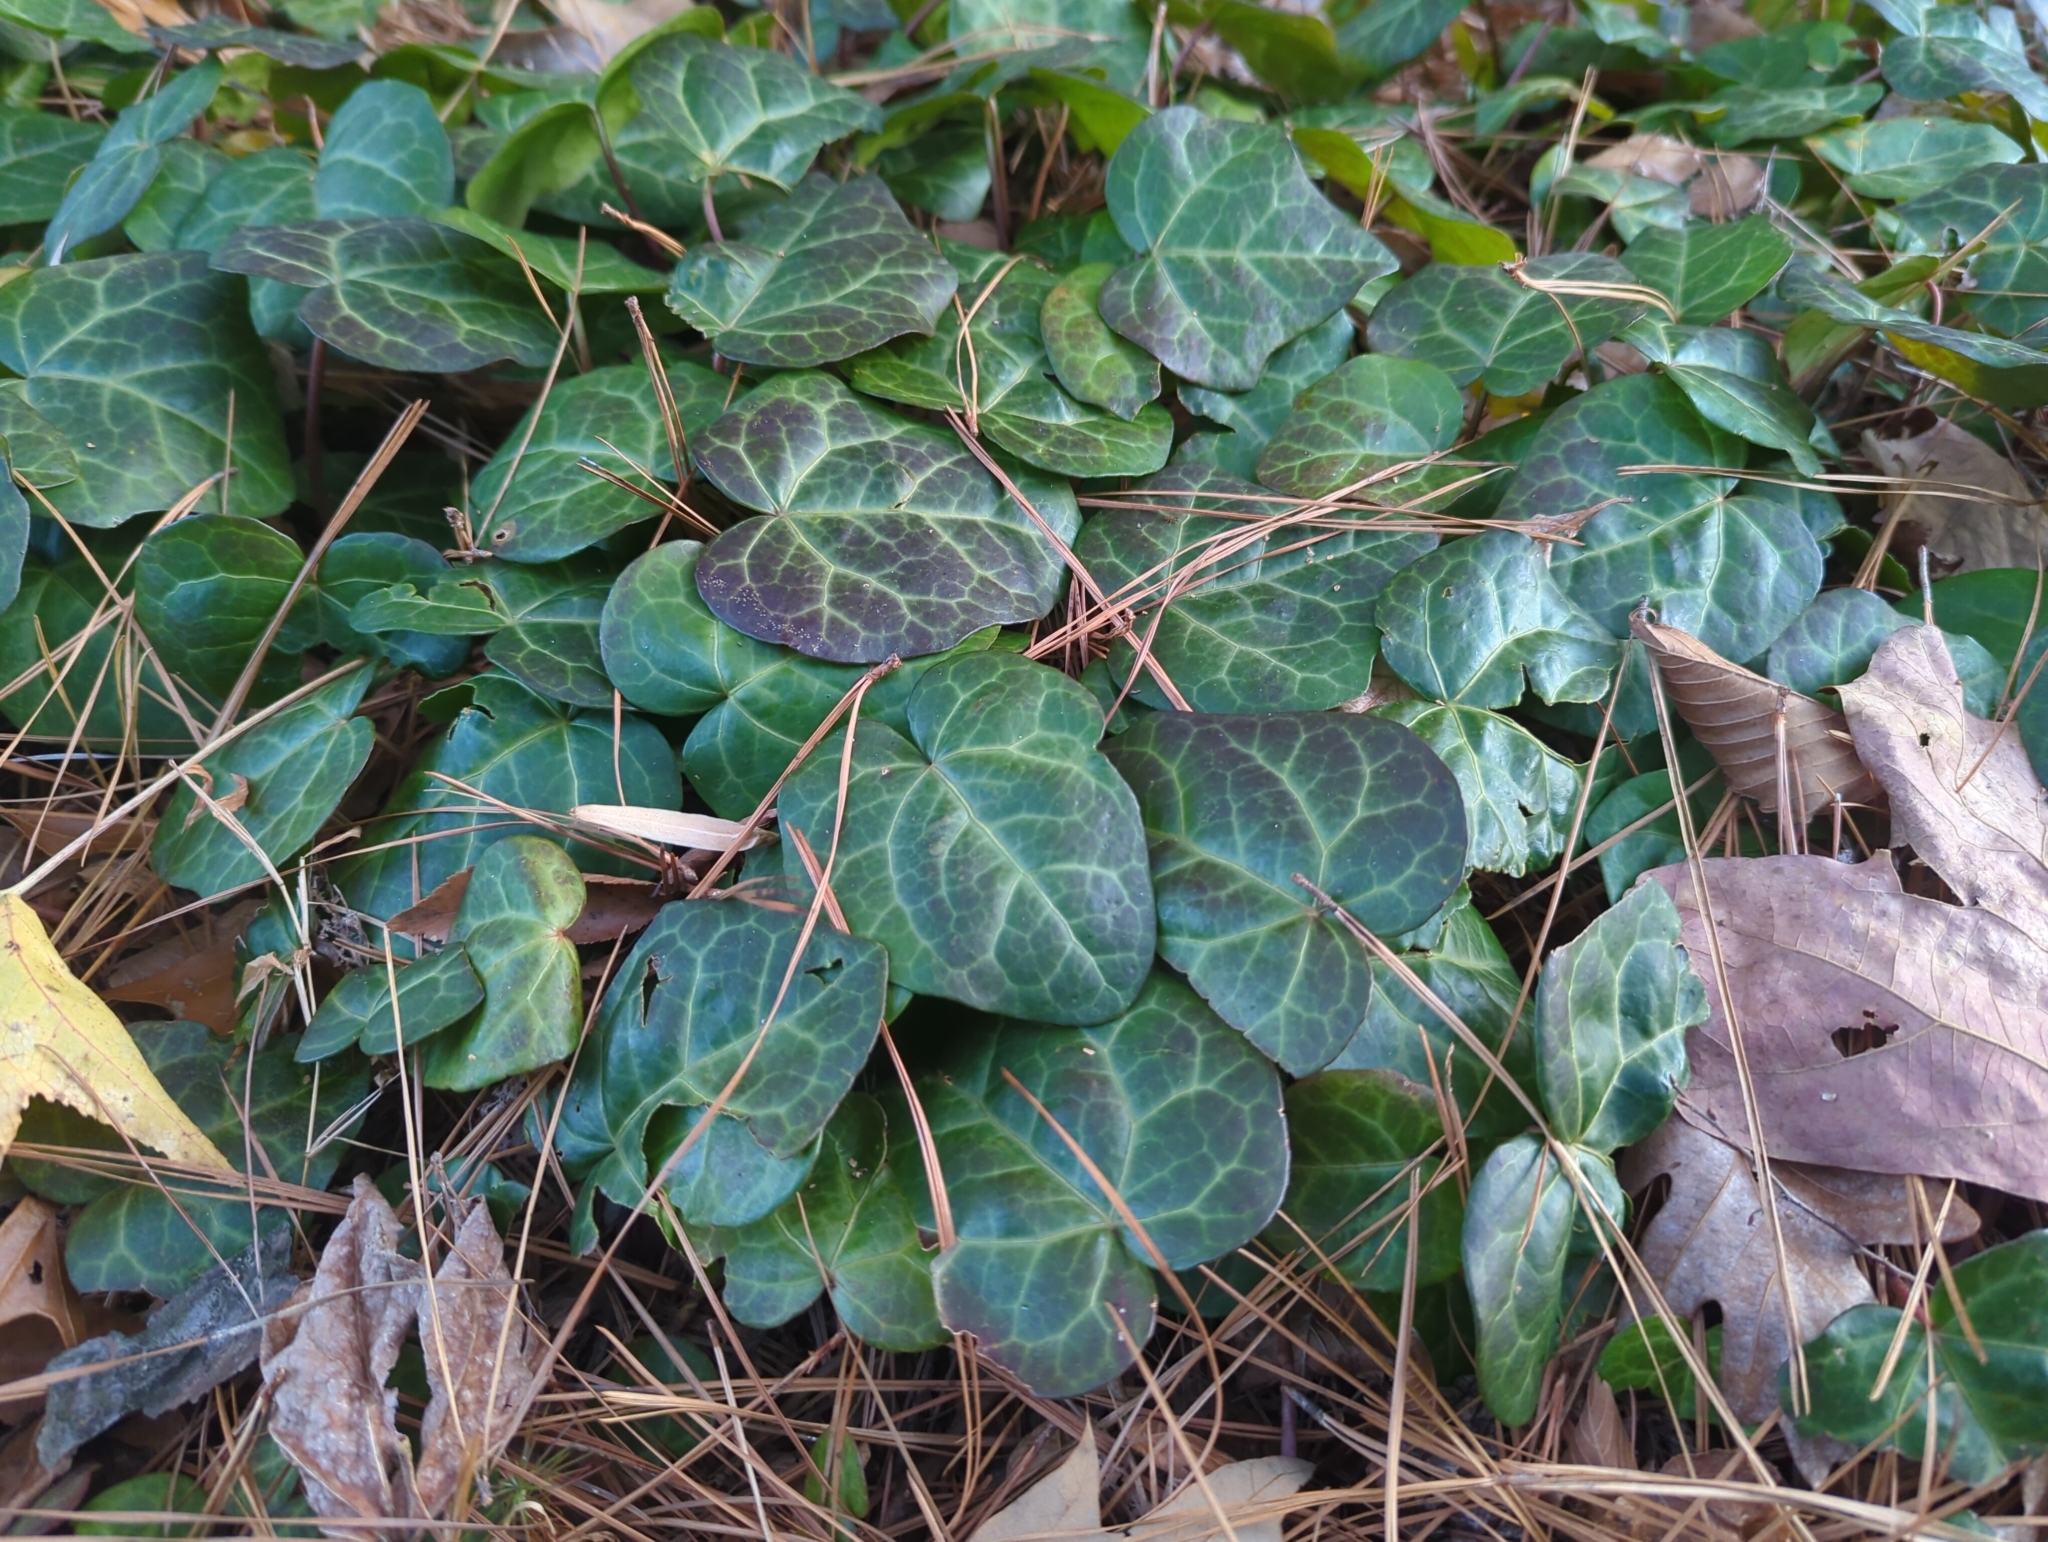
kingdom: Plantae
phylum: Tracheophyta
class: Magnoliopsida
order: Apiales
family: Araliaceae
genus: Hedera
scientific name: Hedera helix
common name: Ivy
